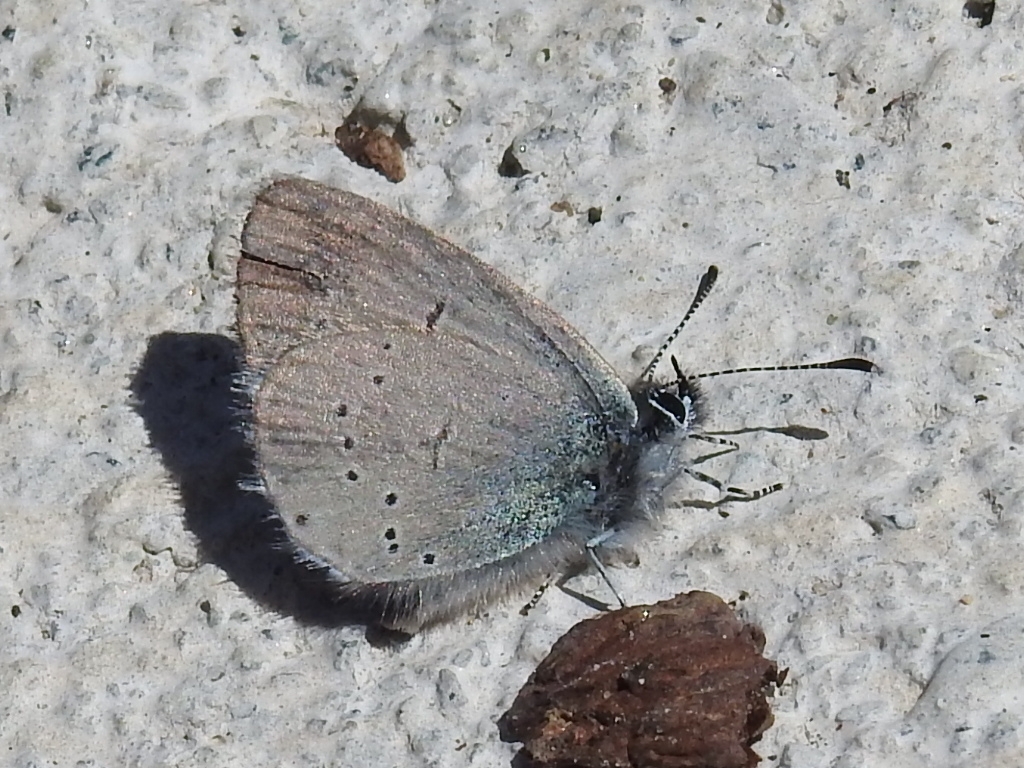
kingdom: Animalia
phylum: Arthropoda
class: Insecta
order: Lepidoptera
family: Lycaenidae
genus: Cupido
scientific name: Cupido minimus
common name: Small blue
